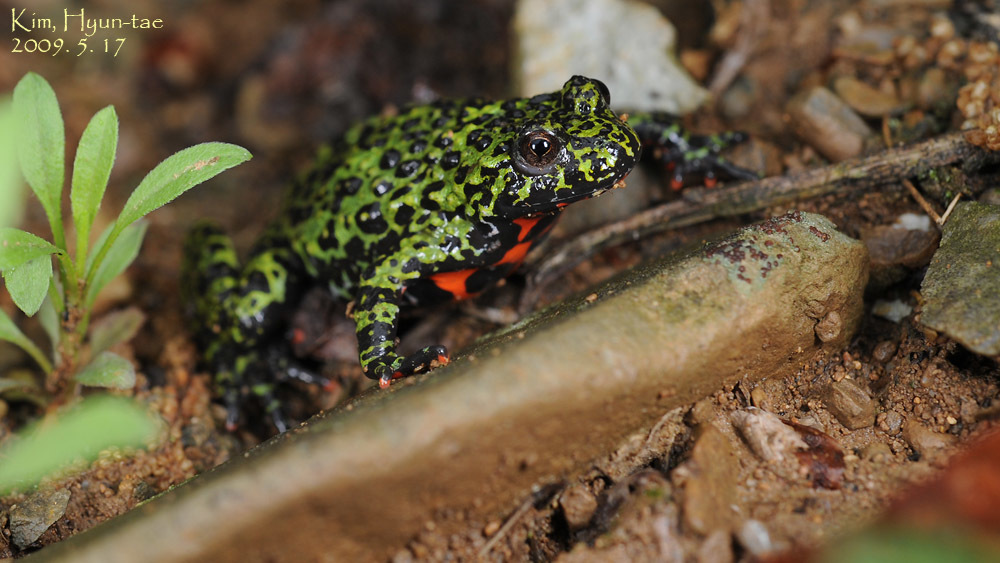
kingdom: Animalia
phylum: Chordata
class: Amphibia
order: Anura
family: Bombinatoridae
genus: Bombina
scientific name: Bombina orientalis
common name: Oriental firebelly toad
